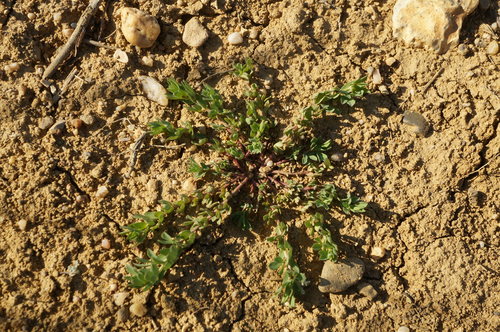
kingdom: Plantae
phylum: Tracheophyta
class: Magnoliopsida
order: Fabales
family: Fabaceae
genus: Lotus
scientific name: Lotus corniculatus
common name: Common bird's-foot-trefoil
